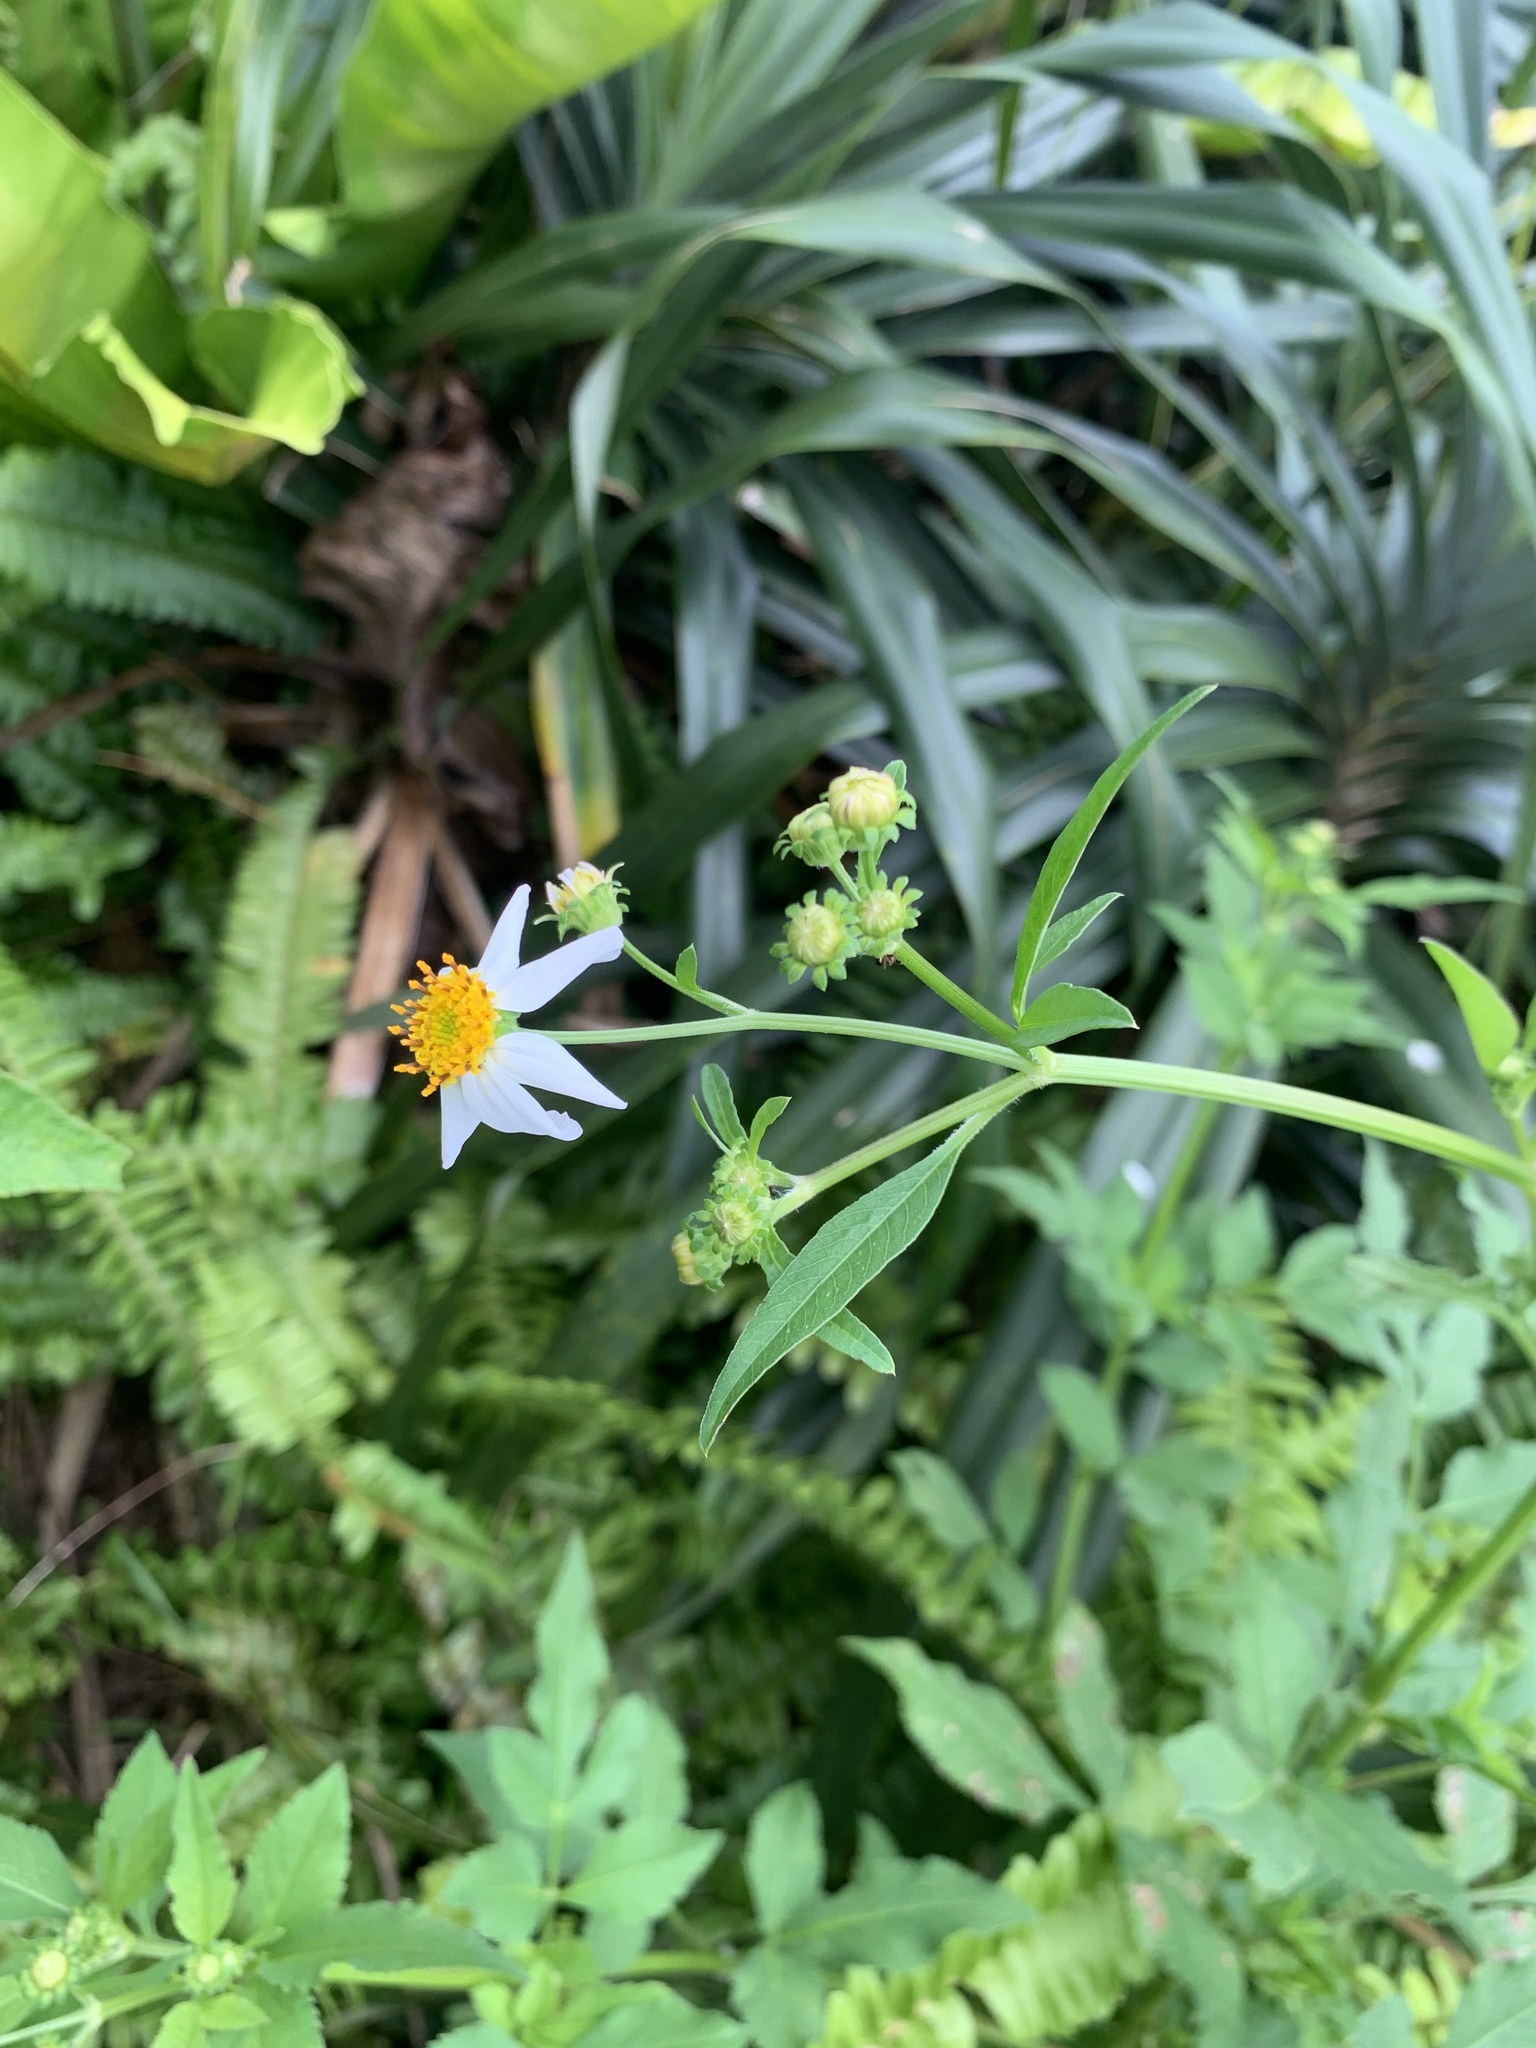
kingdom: Plantae
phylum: Tracheophyta
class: Magnoliopsida
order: Asterales
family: Asteraceae
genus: Bidens
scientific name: Bidens alba
